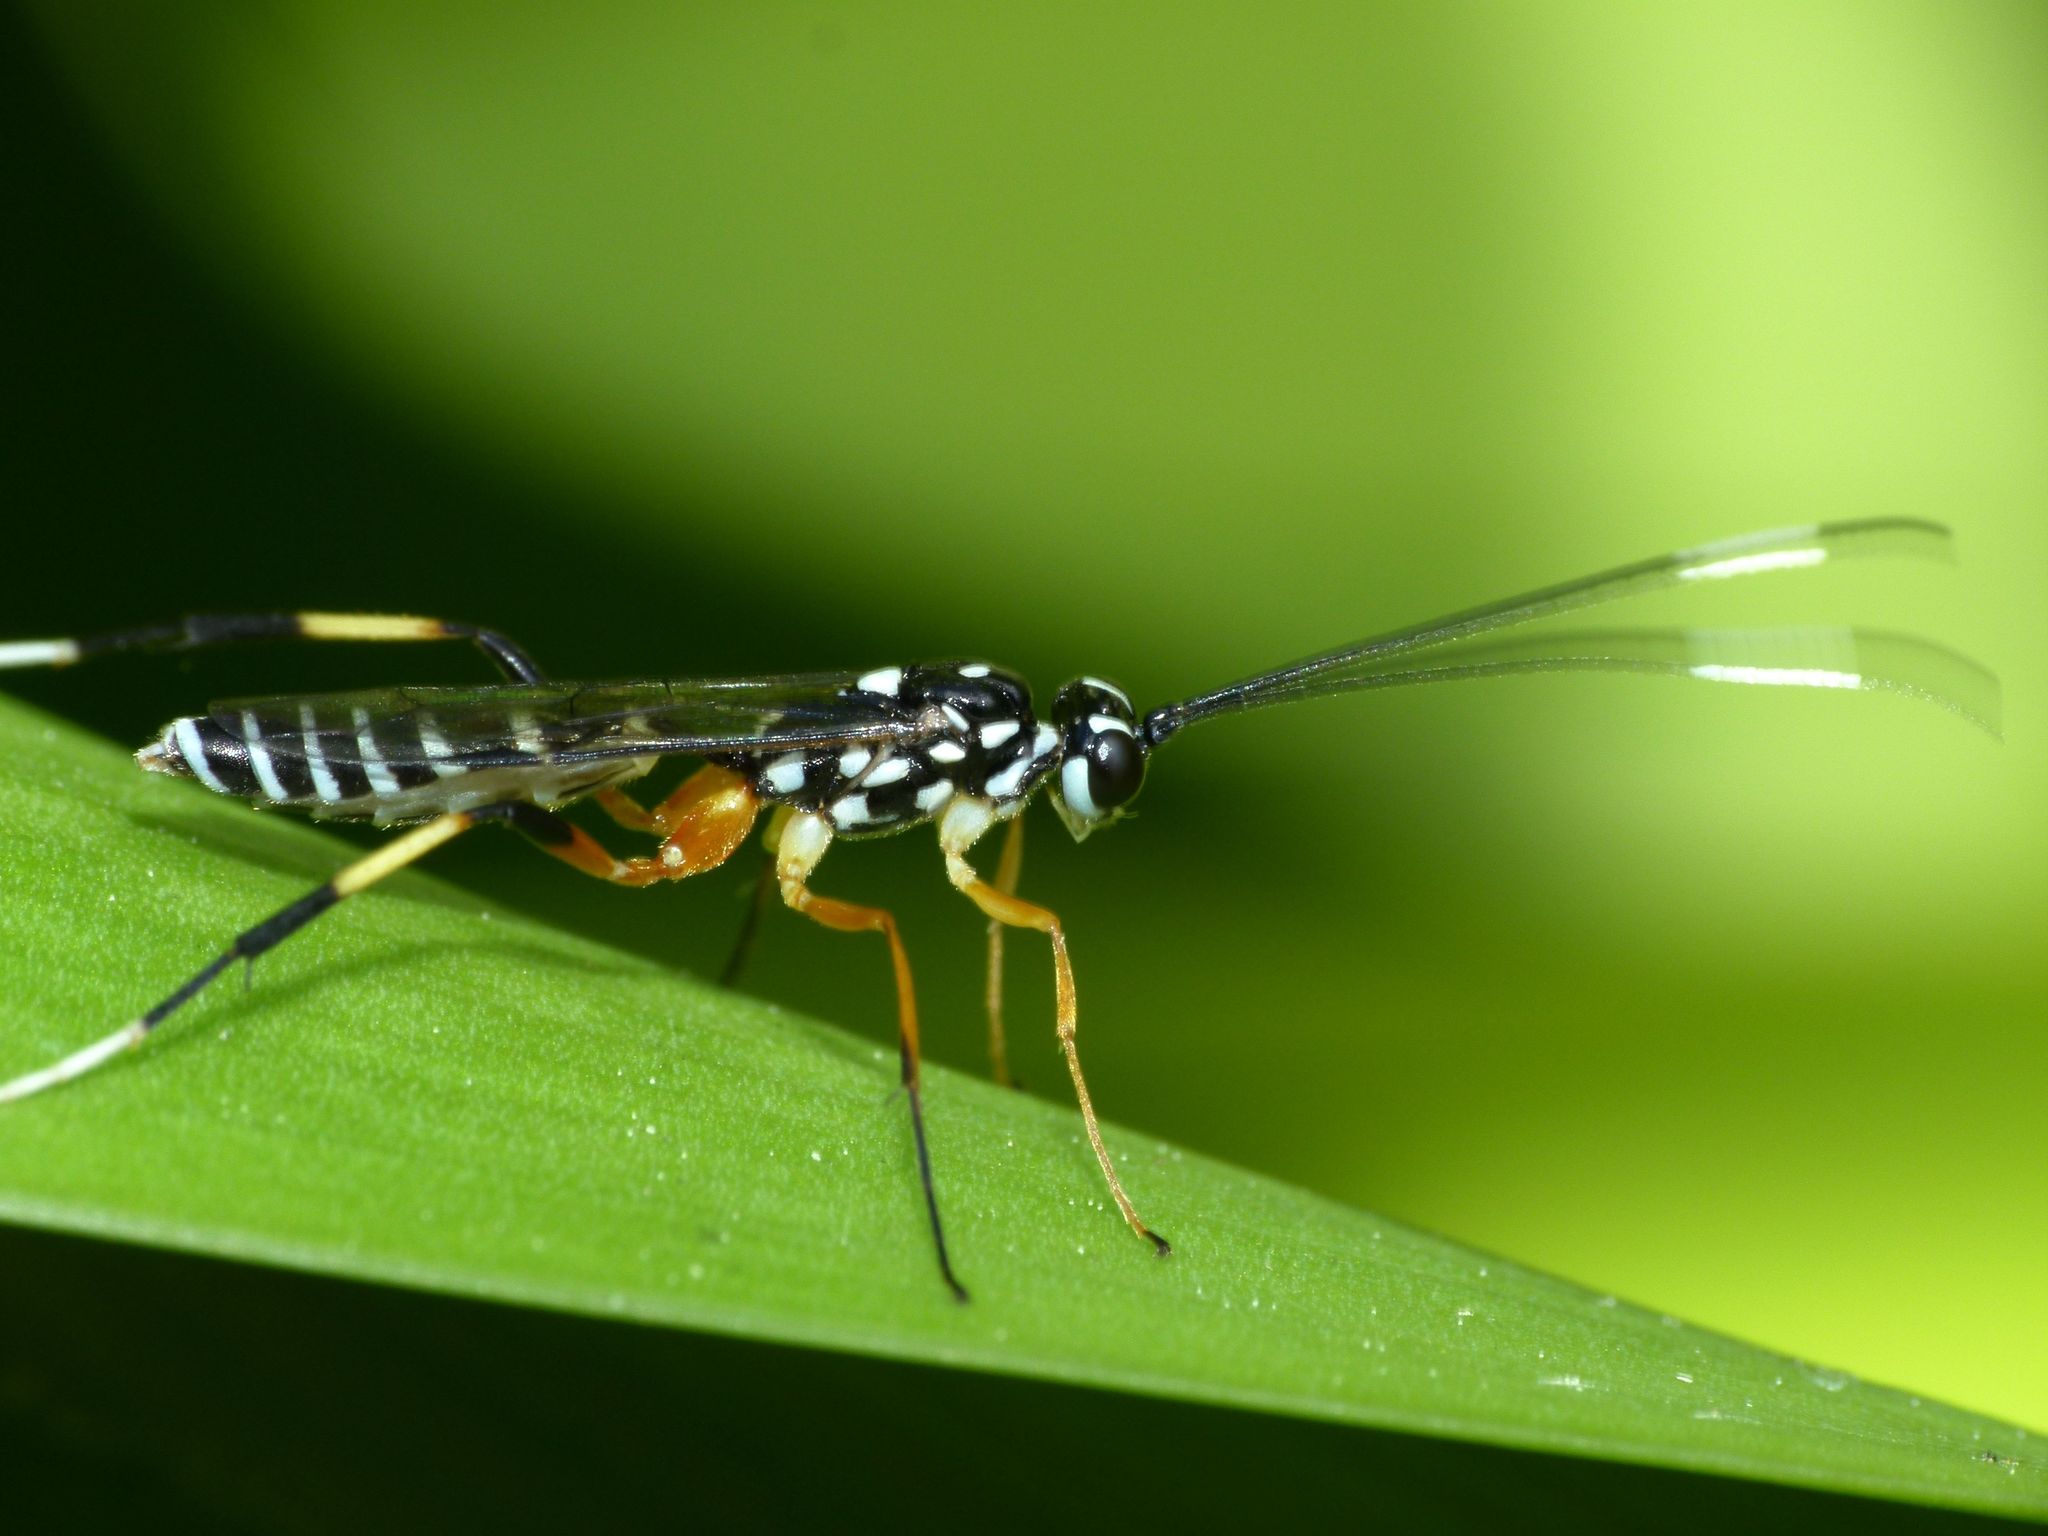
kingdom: Animalia
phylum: Arthropoda
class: Insecta
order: Hymenoptera
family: Ichneumonidae
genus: Xanthocryptus
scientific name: Xanthocryptus novozealandicus
